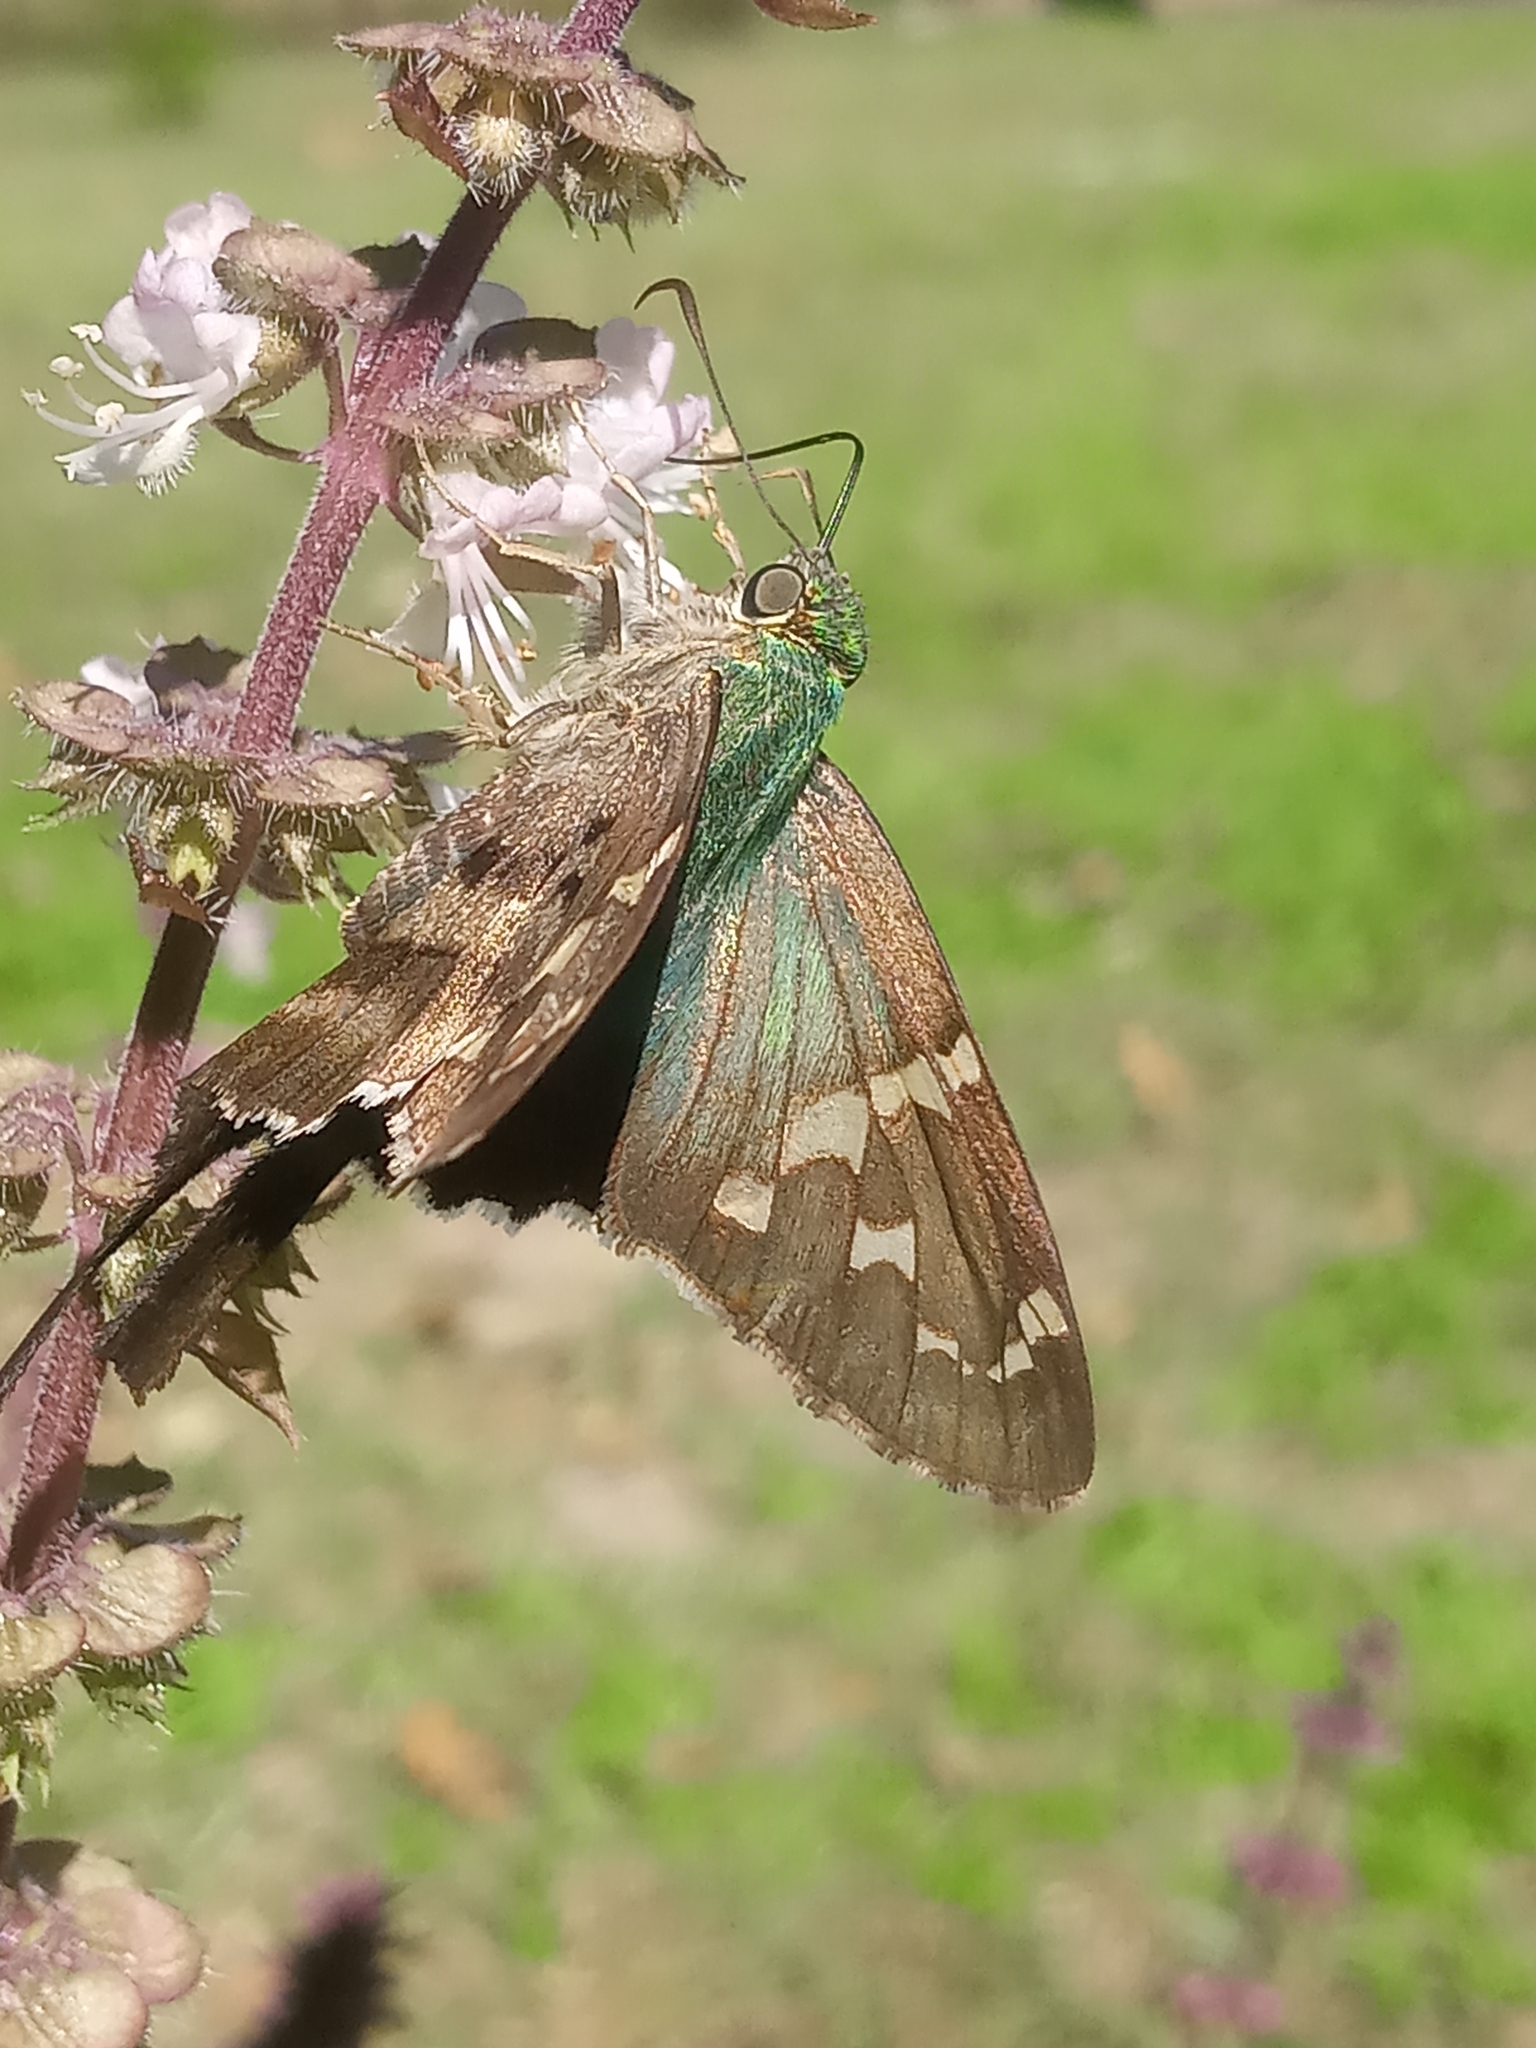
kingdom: Animalia
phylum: Arthropoda
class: Insecta
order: Lepidoptera
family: Hesperiidae
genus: Urbanus
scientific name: Urbanus proteus
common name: Long-tailed skipper
